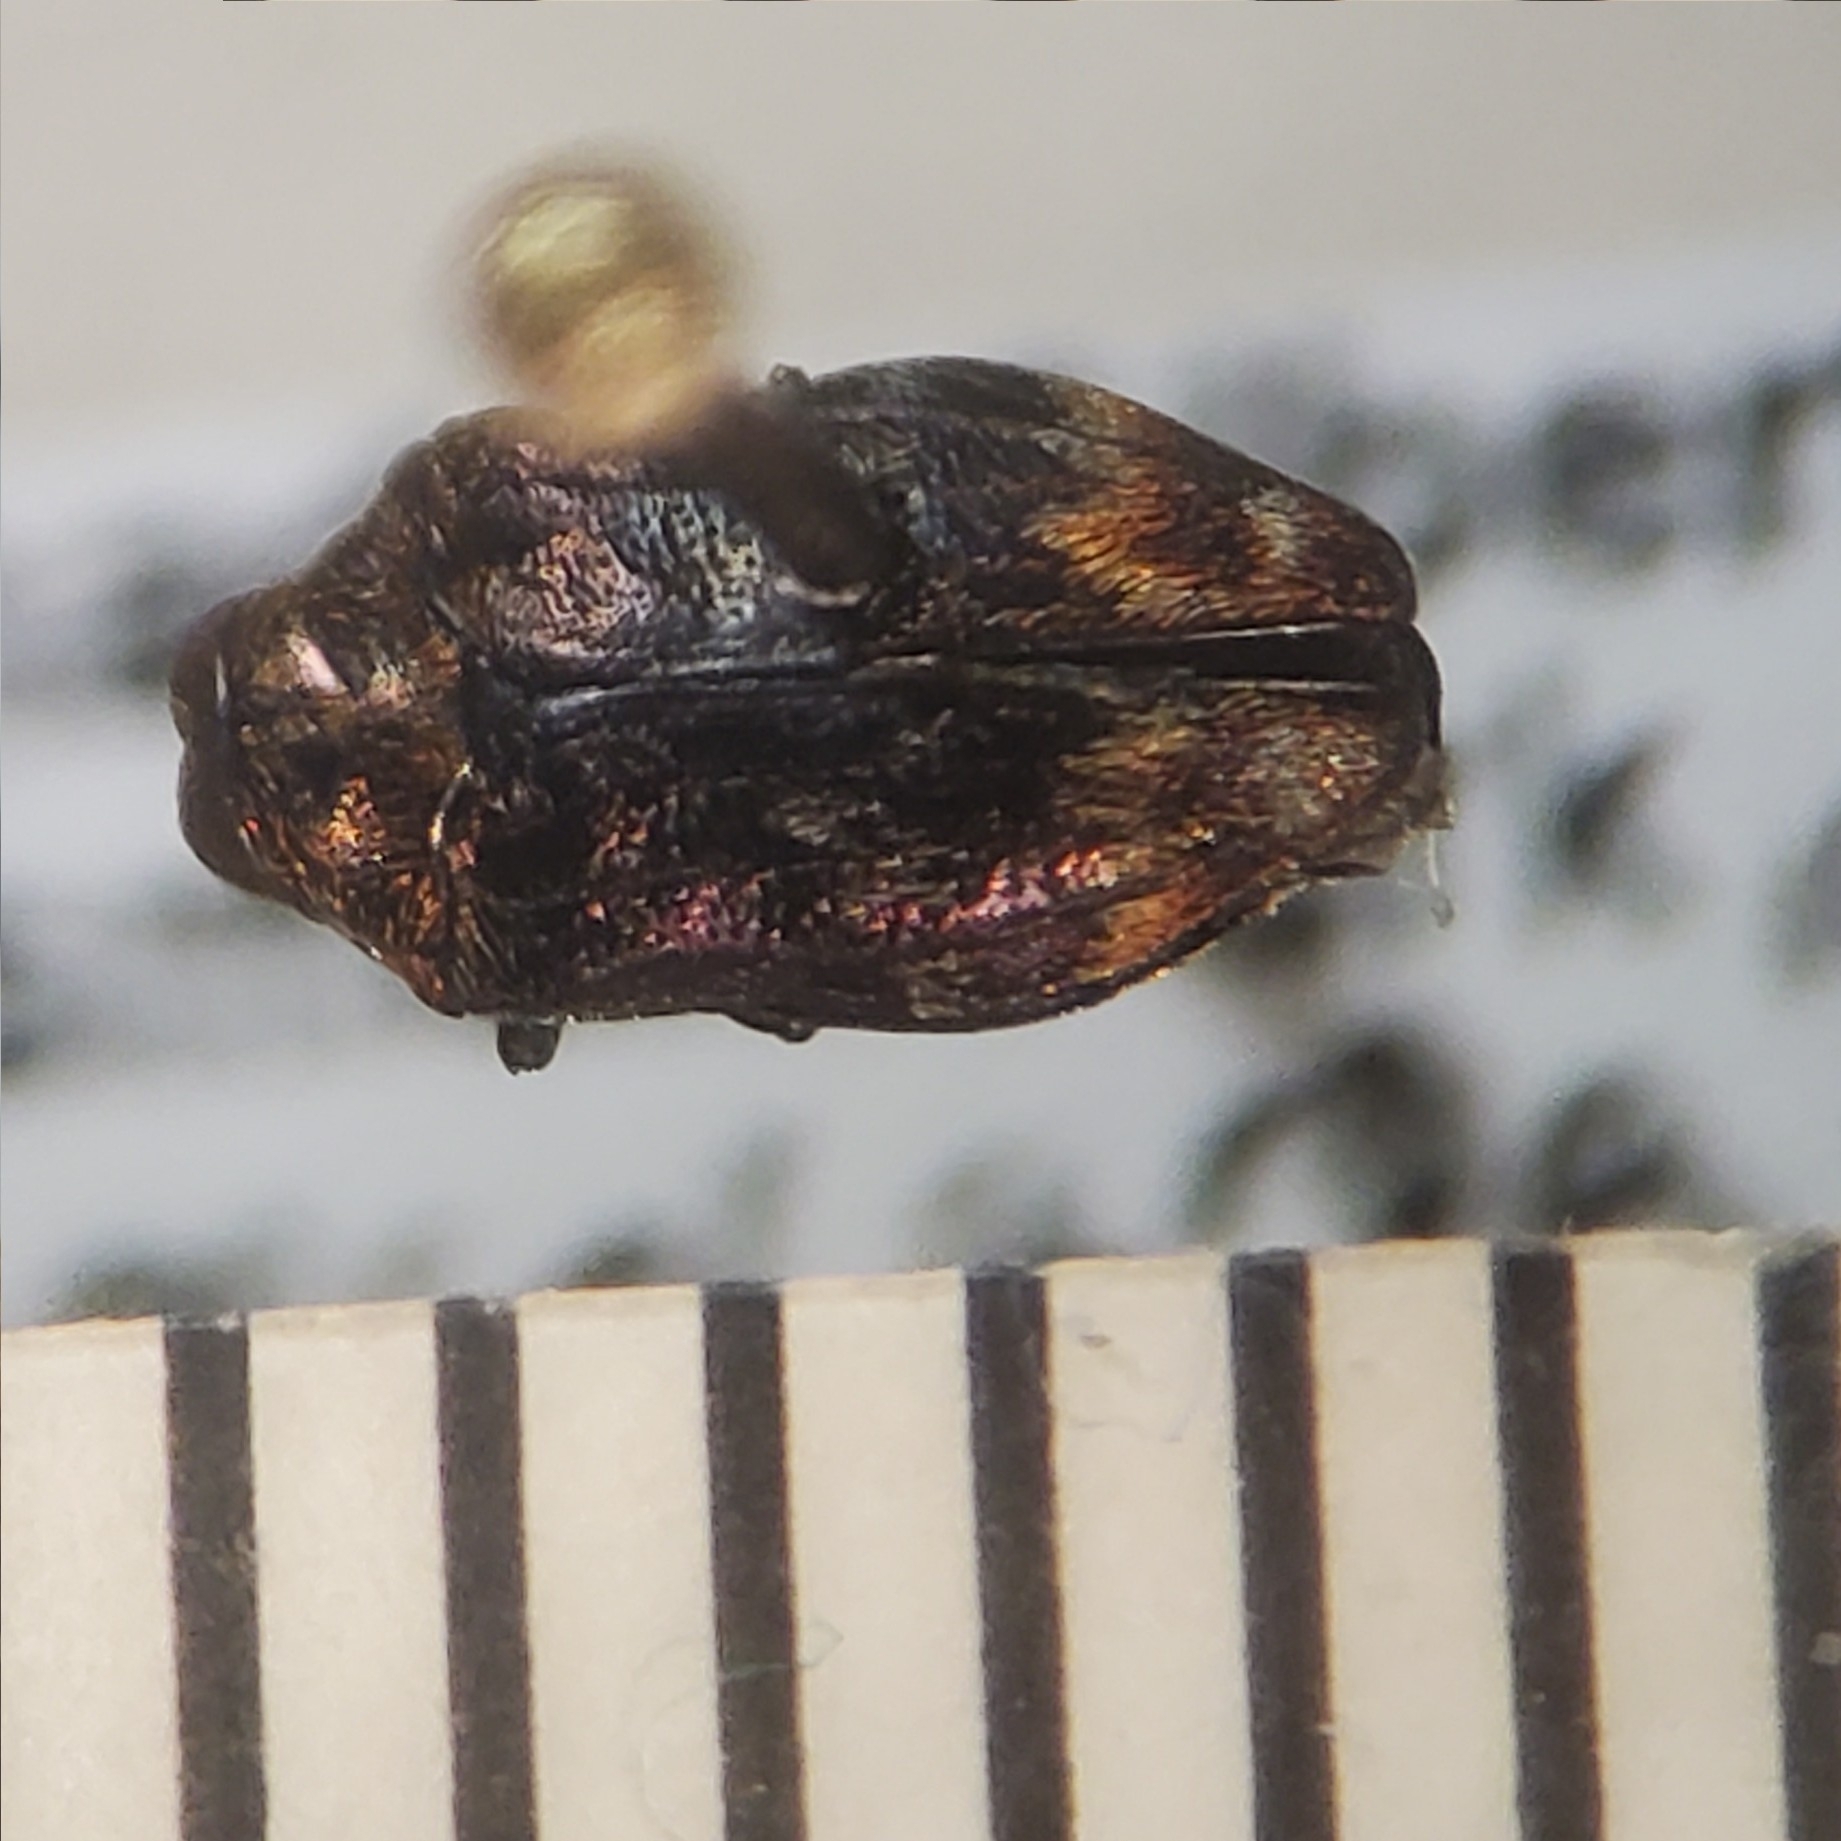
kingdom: Animalia
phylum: Arthropoda
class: Insecta
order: Coleoptera
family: Buprestidae
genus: Brachys
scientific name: Brachys aerosus
